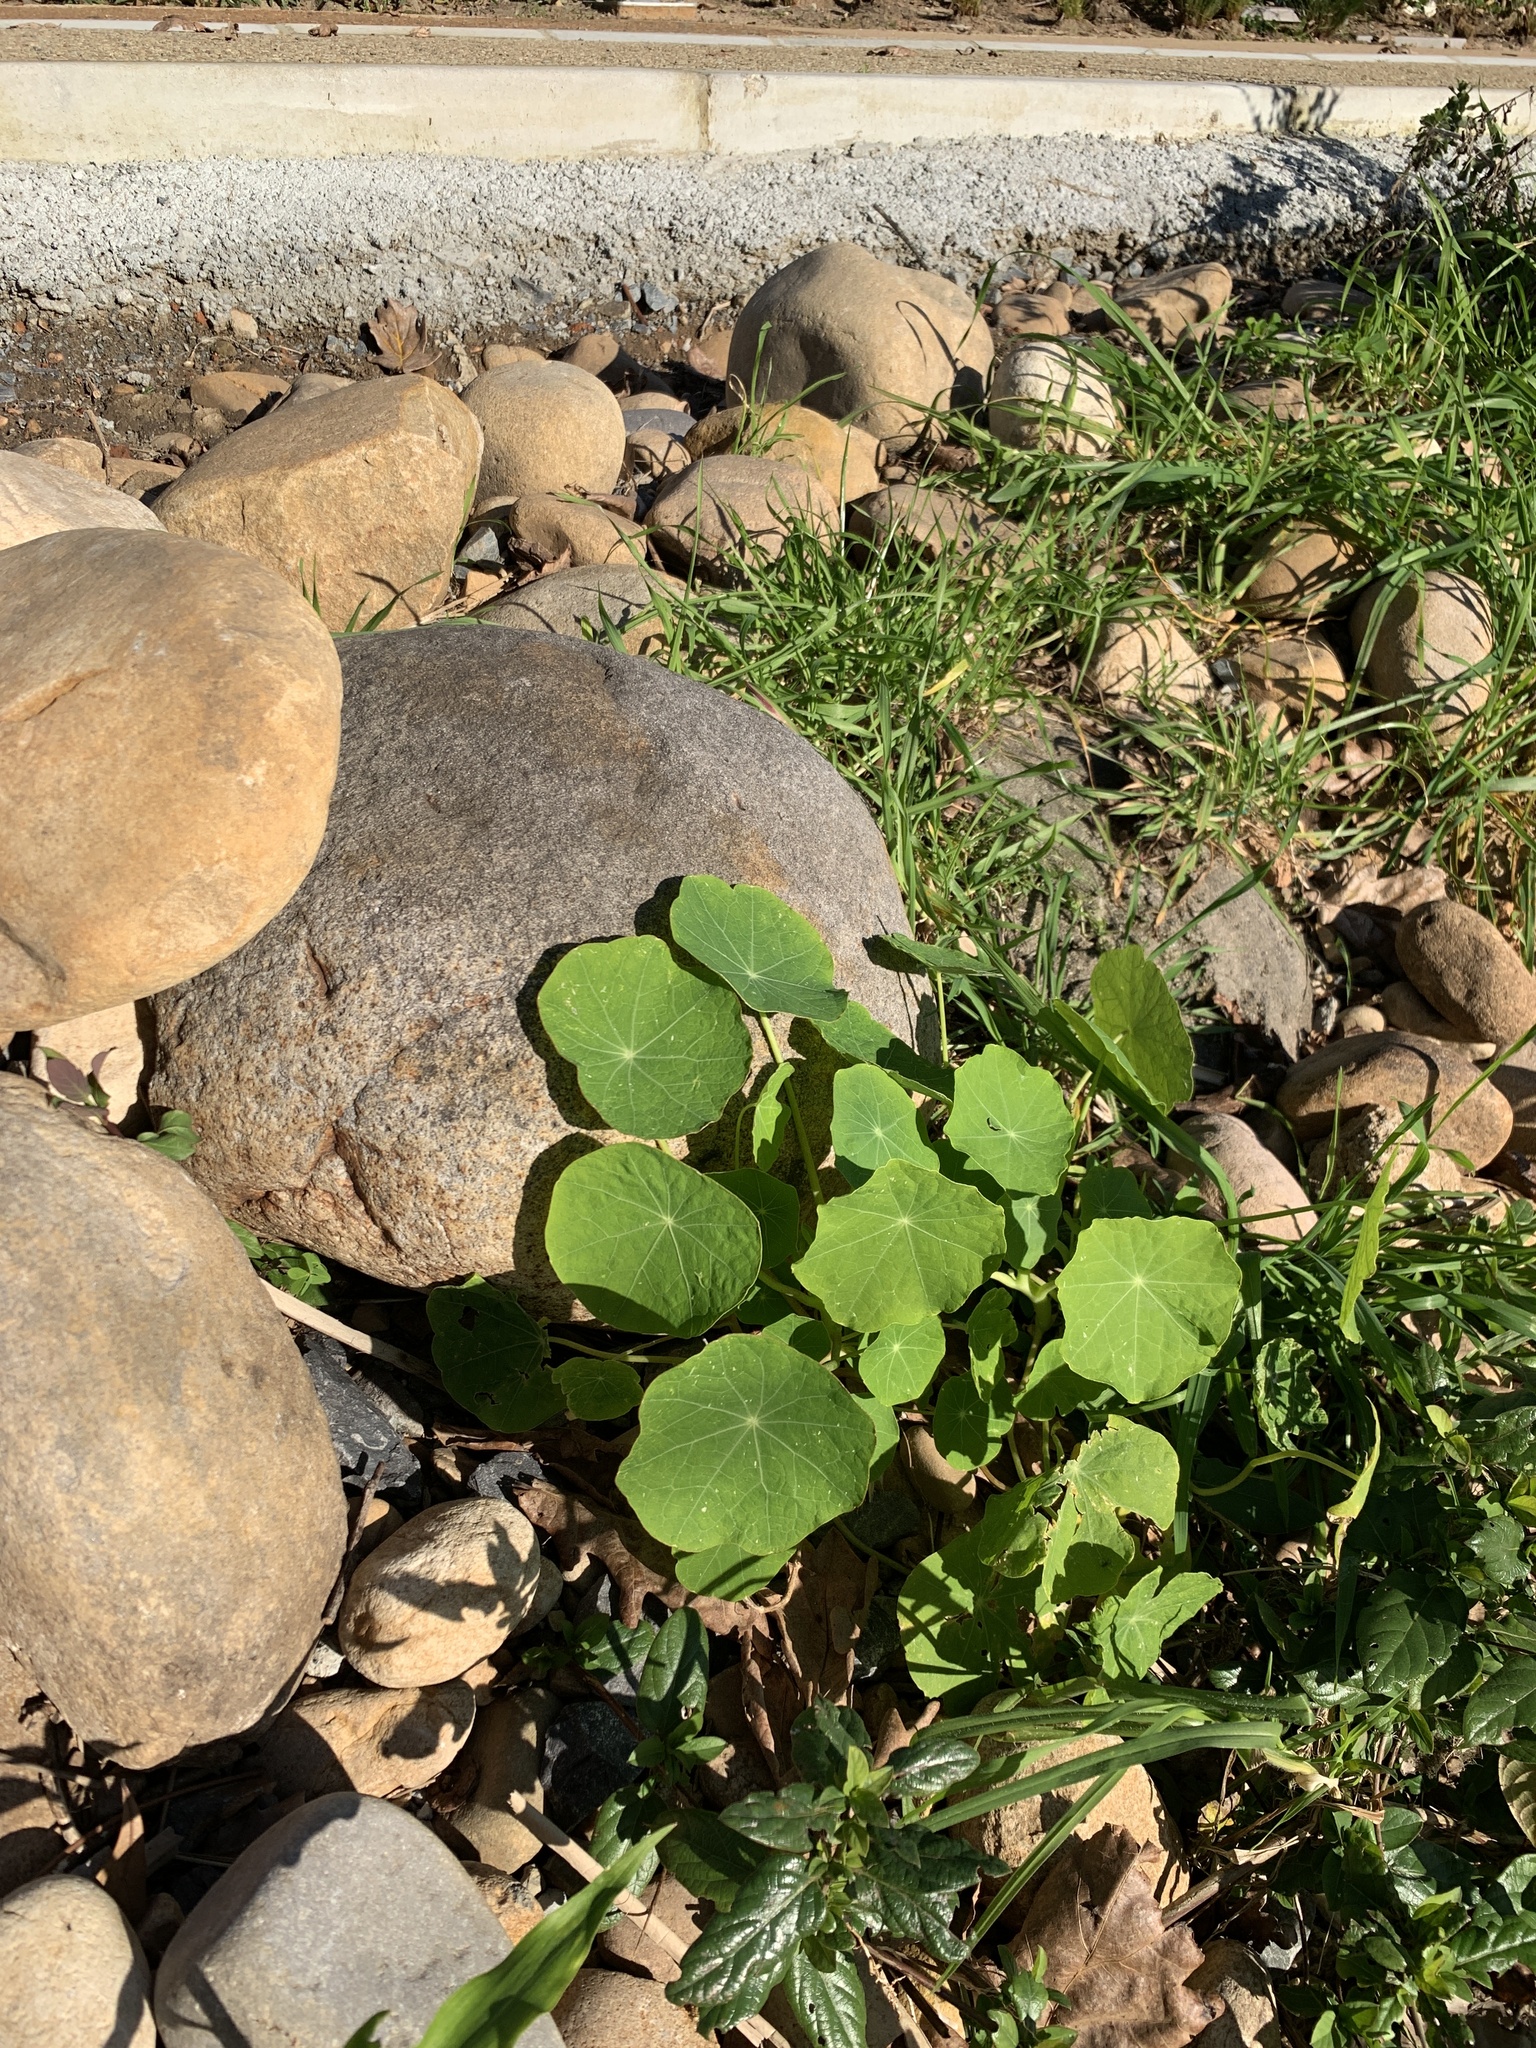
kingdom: Plantae
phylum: Tracheophyta
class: Magnoliopsida
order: Brassicales
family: Tropaeolaceae
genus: Tropaeolum
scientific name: Tropaeolum majus
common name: Nasturtium
